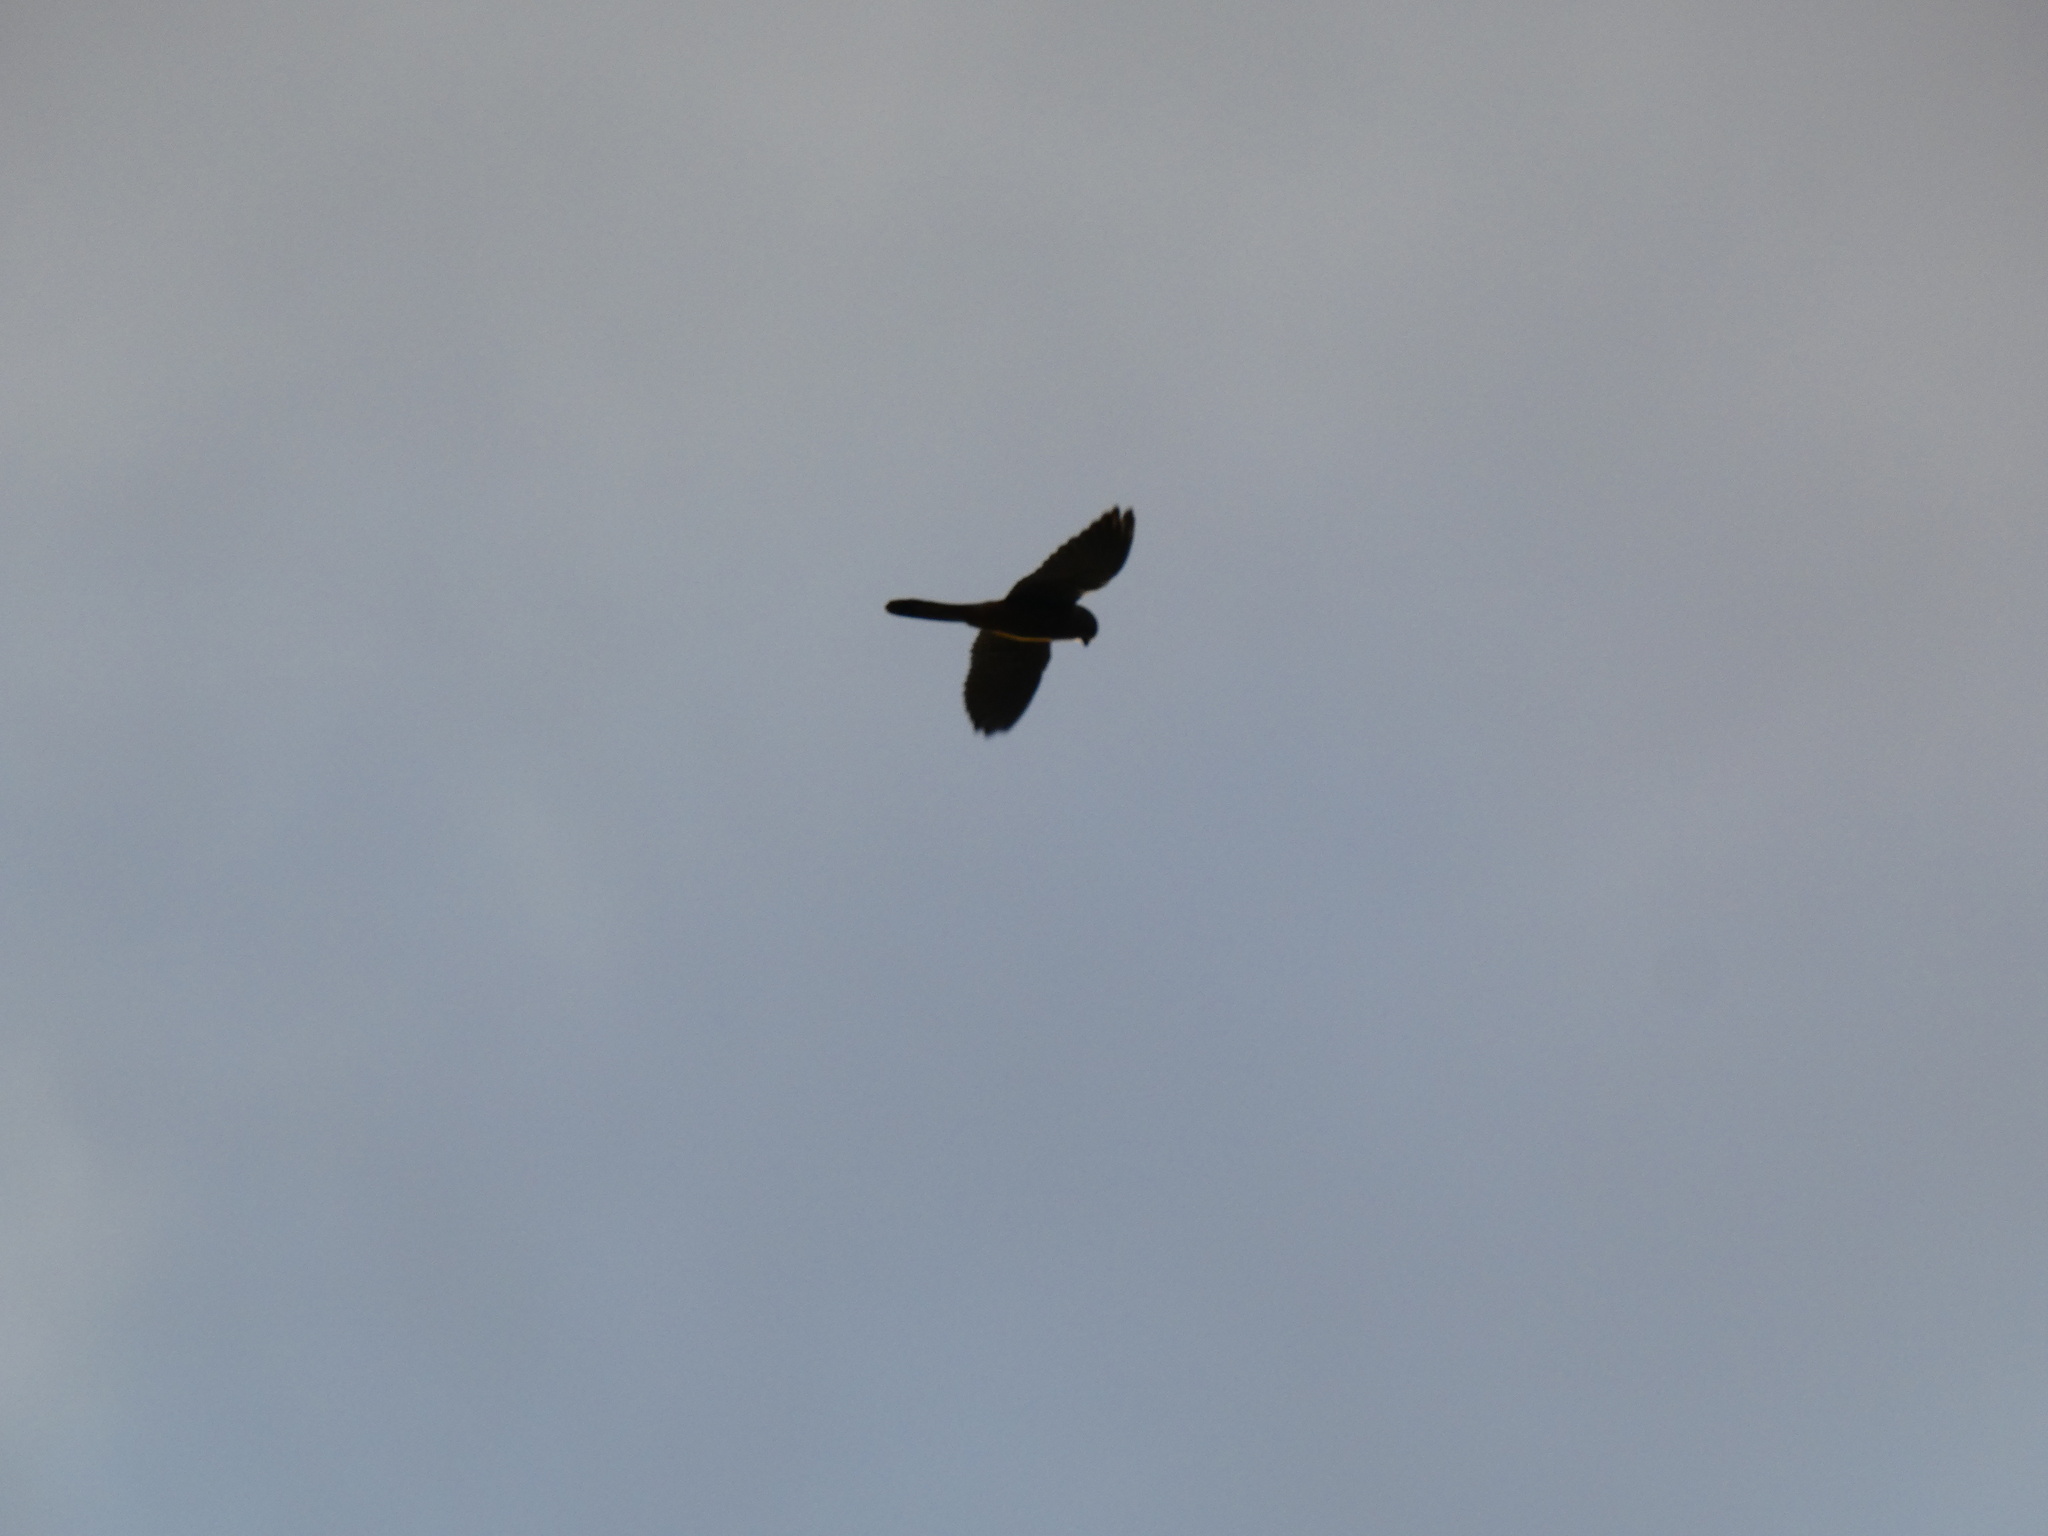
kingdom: Animalia
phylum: Chordata
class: Aves
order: Falconiformes
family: Falconidae
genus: Falco
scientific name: Falco tinnunculus
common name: Common kestrel
